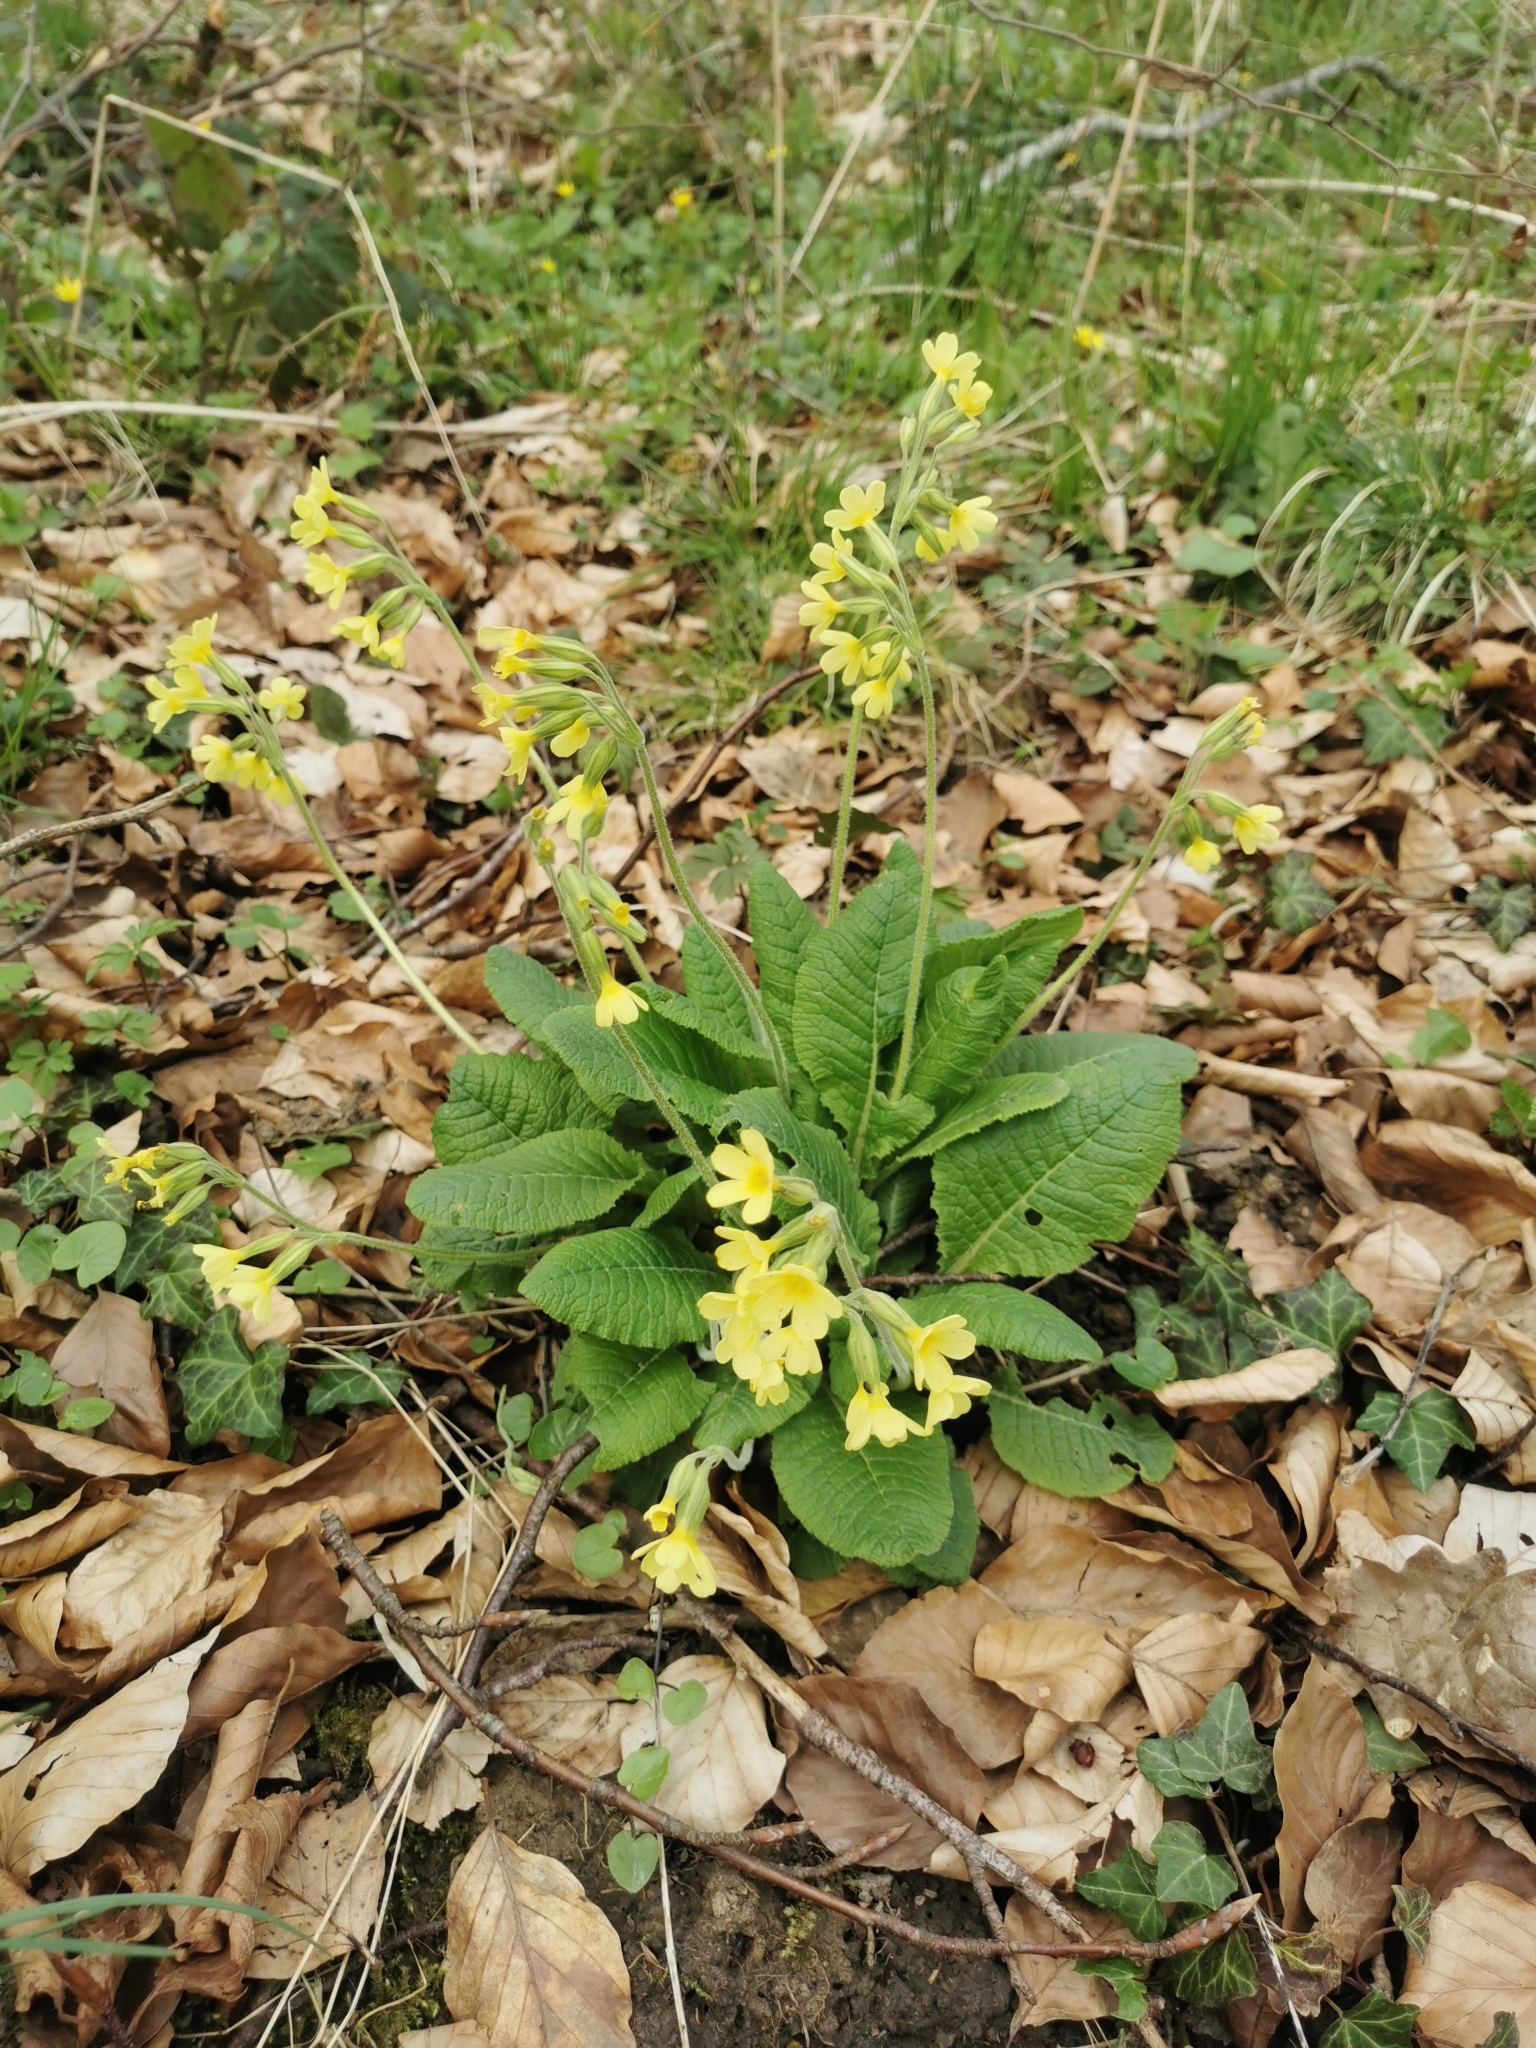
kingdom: Plantae
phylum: Tracheophyta
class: Magnoliopsida
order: Ericales
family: Primulaceae
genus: Primula
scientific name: Primula elatior
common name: Oxlip
